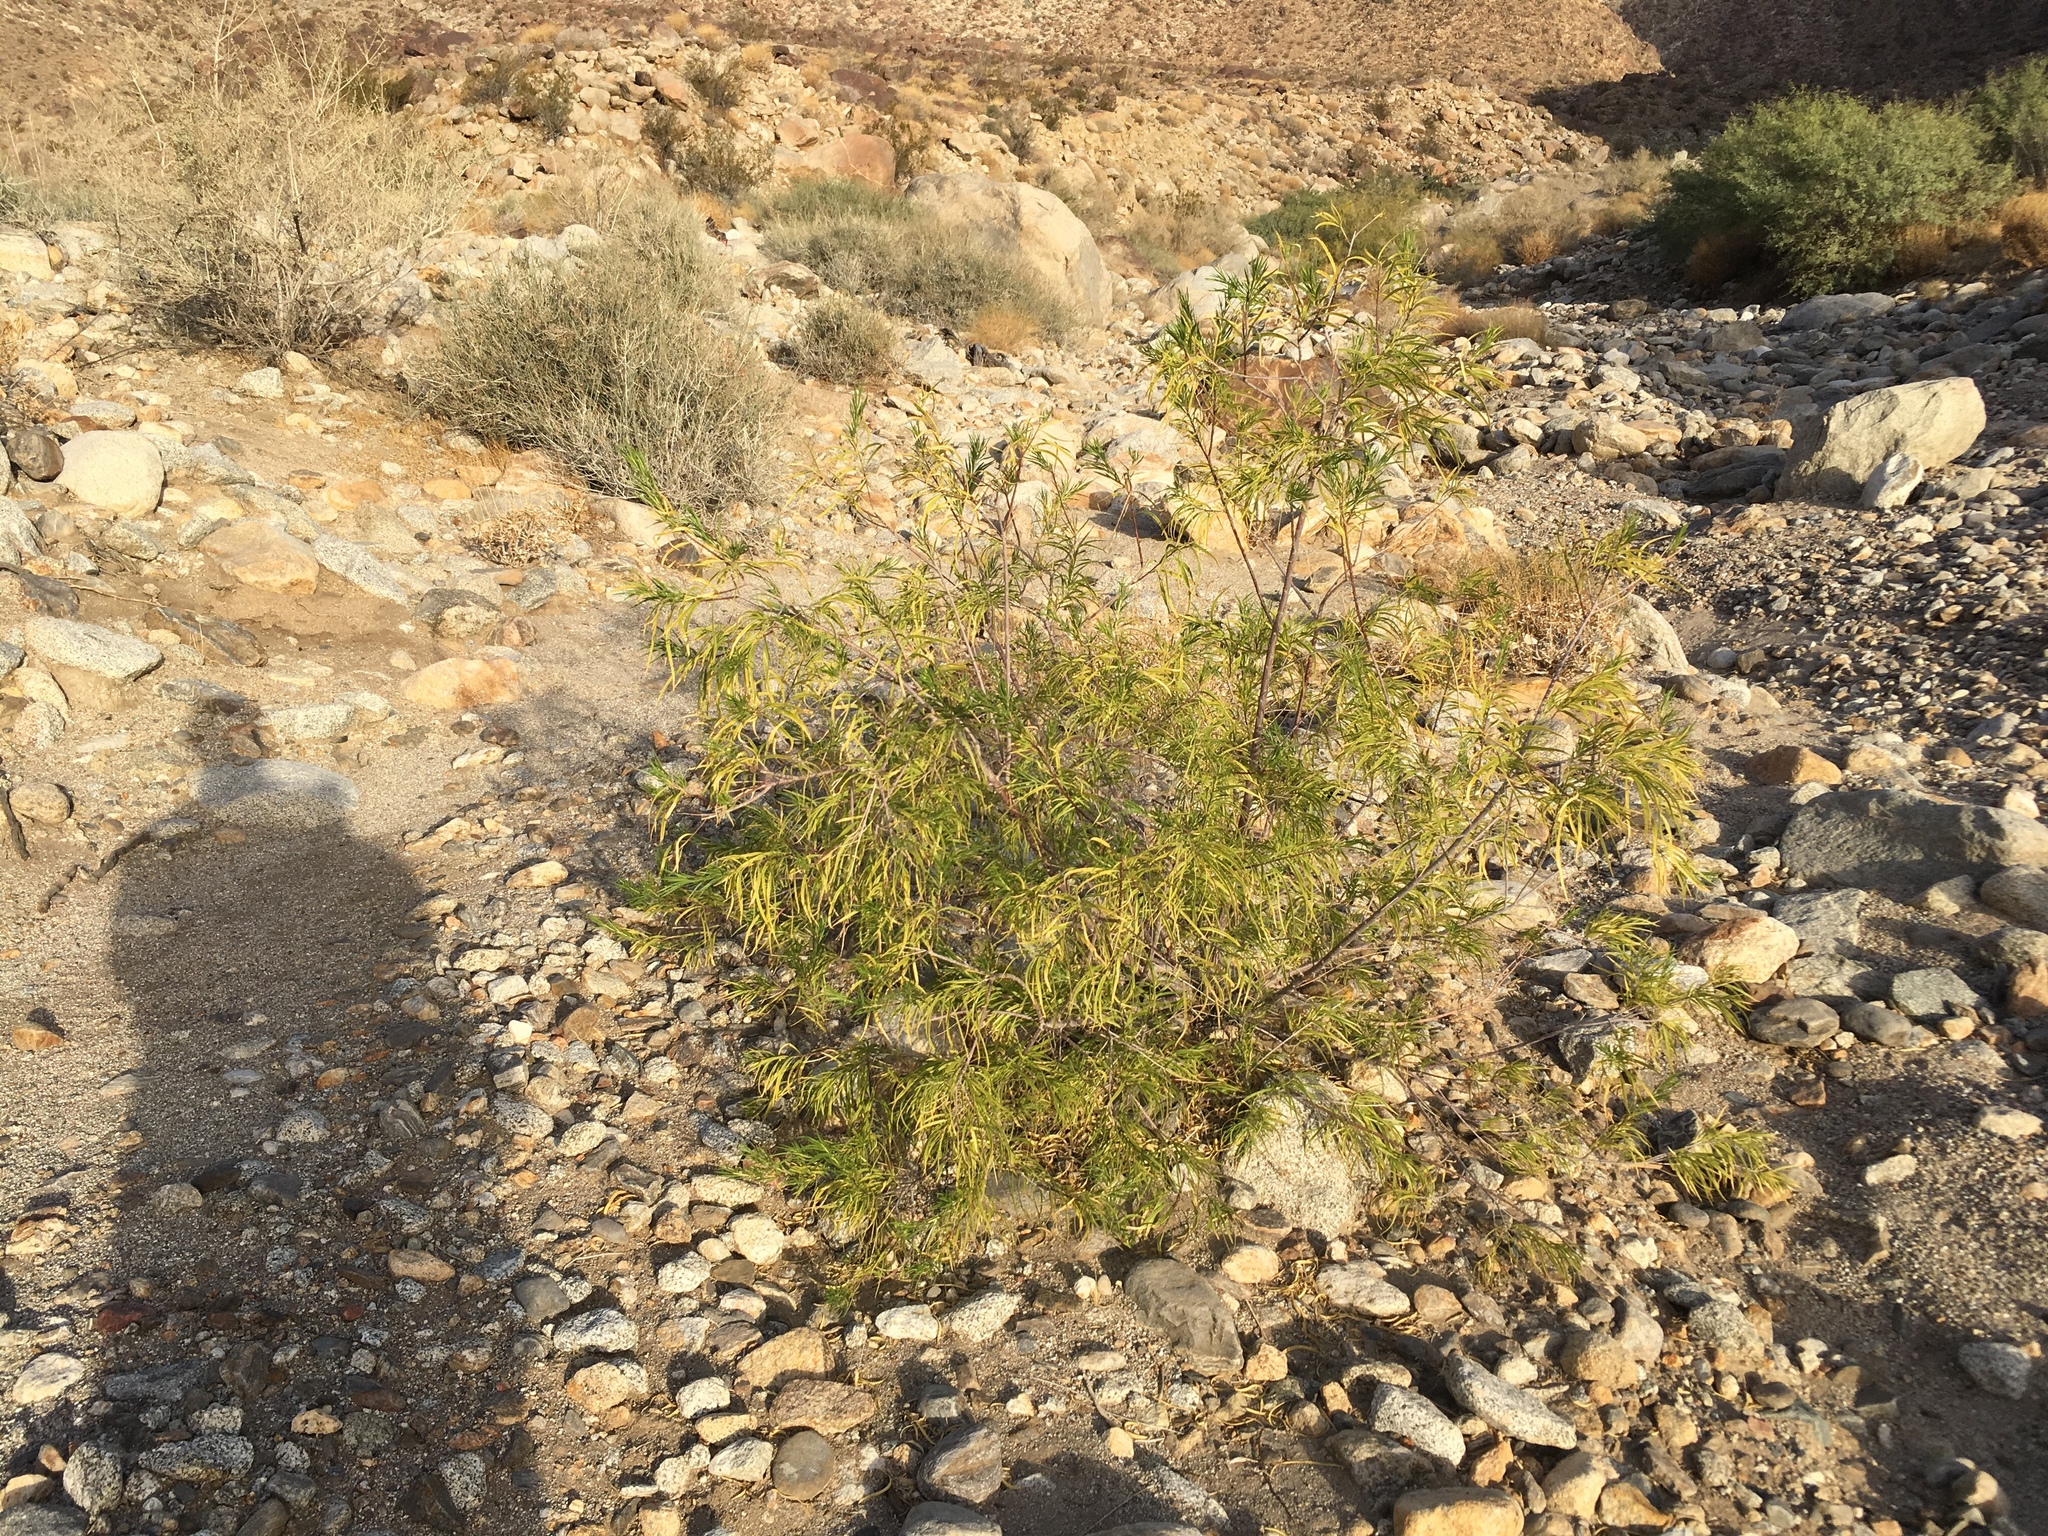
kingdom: Plantae
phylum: Tracheophyta
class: Magnoliopsida
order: Lamiales
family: Bignoniaceae
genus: Chilopsis
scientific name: Chilopsis linearis
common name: Desert-willow
